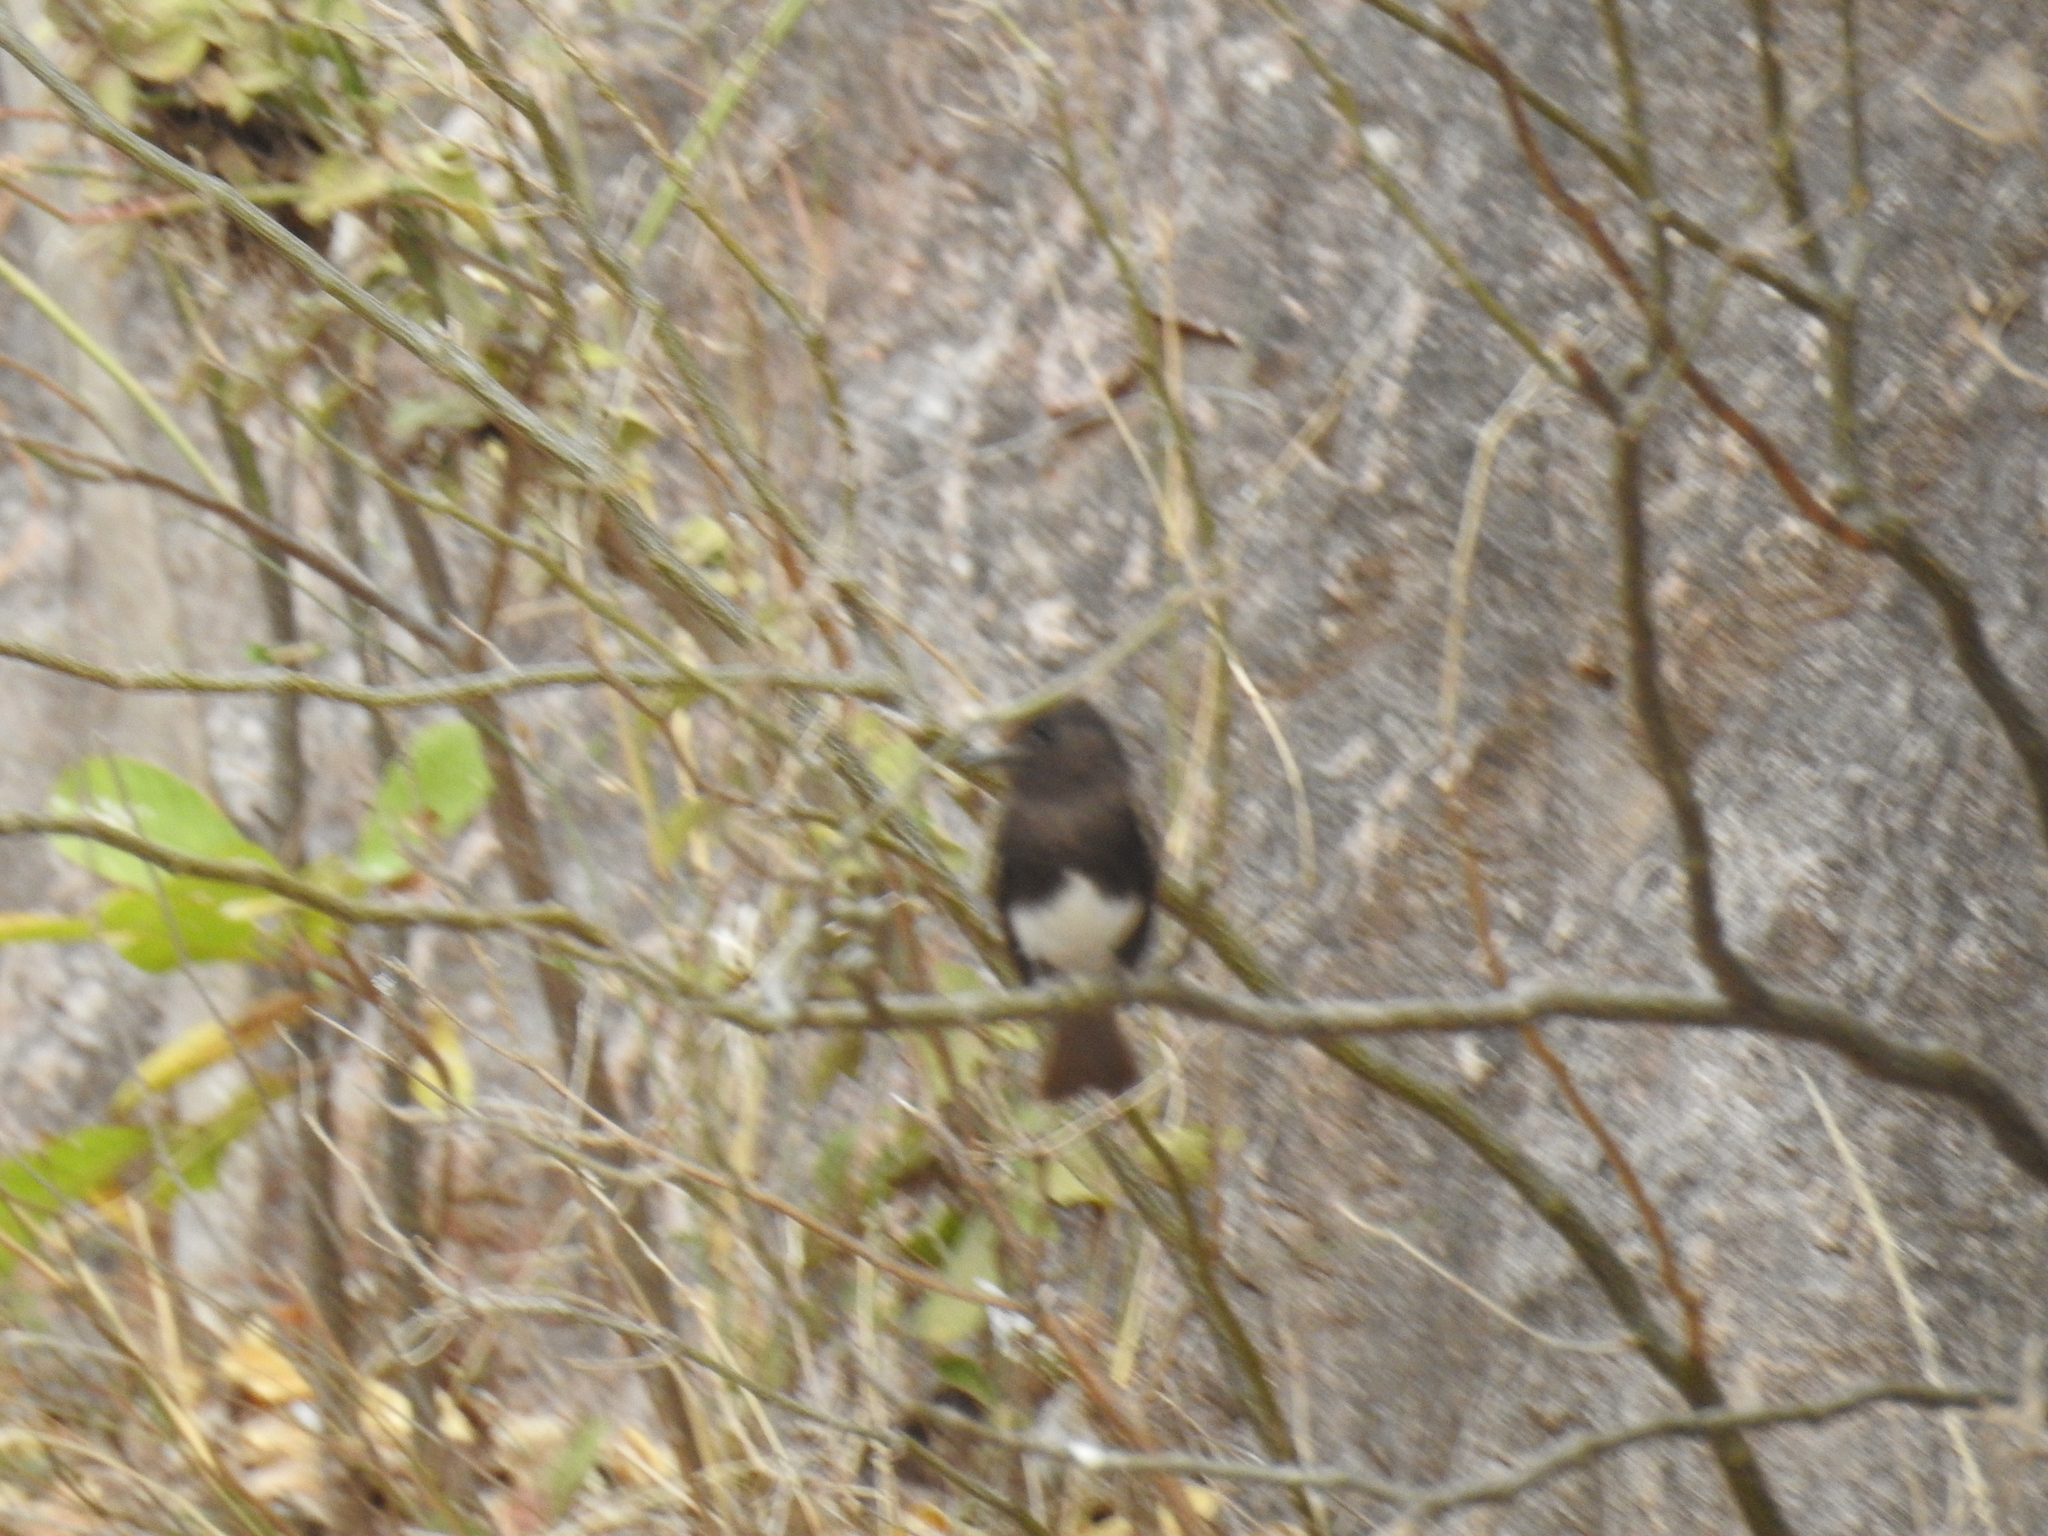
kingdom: Animalia
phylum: Chordata
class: Aves
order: Passeriformes
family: Tyrannidae
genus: Sayornis
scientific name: Sayornis nigricans
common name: Black phoebe
